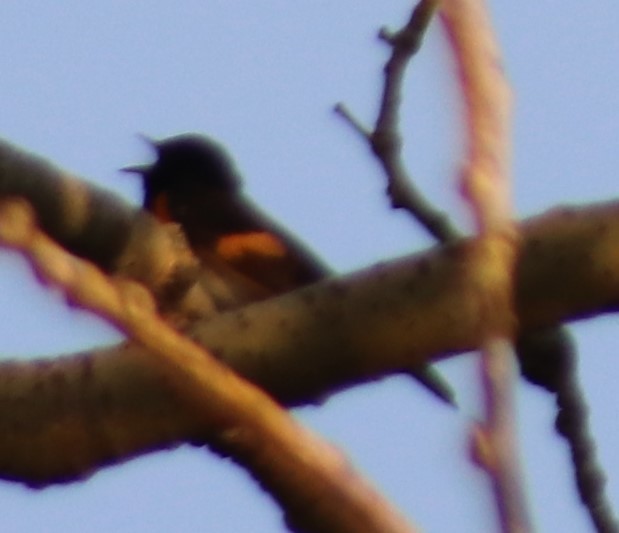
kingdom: Animalia
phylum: Chordata
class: Aves
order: Passeriformes
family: Parulidae
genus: Setophaga
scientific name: Setophaga ruticilla
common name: American redstart
